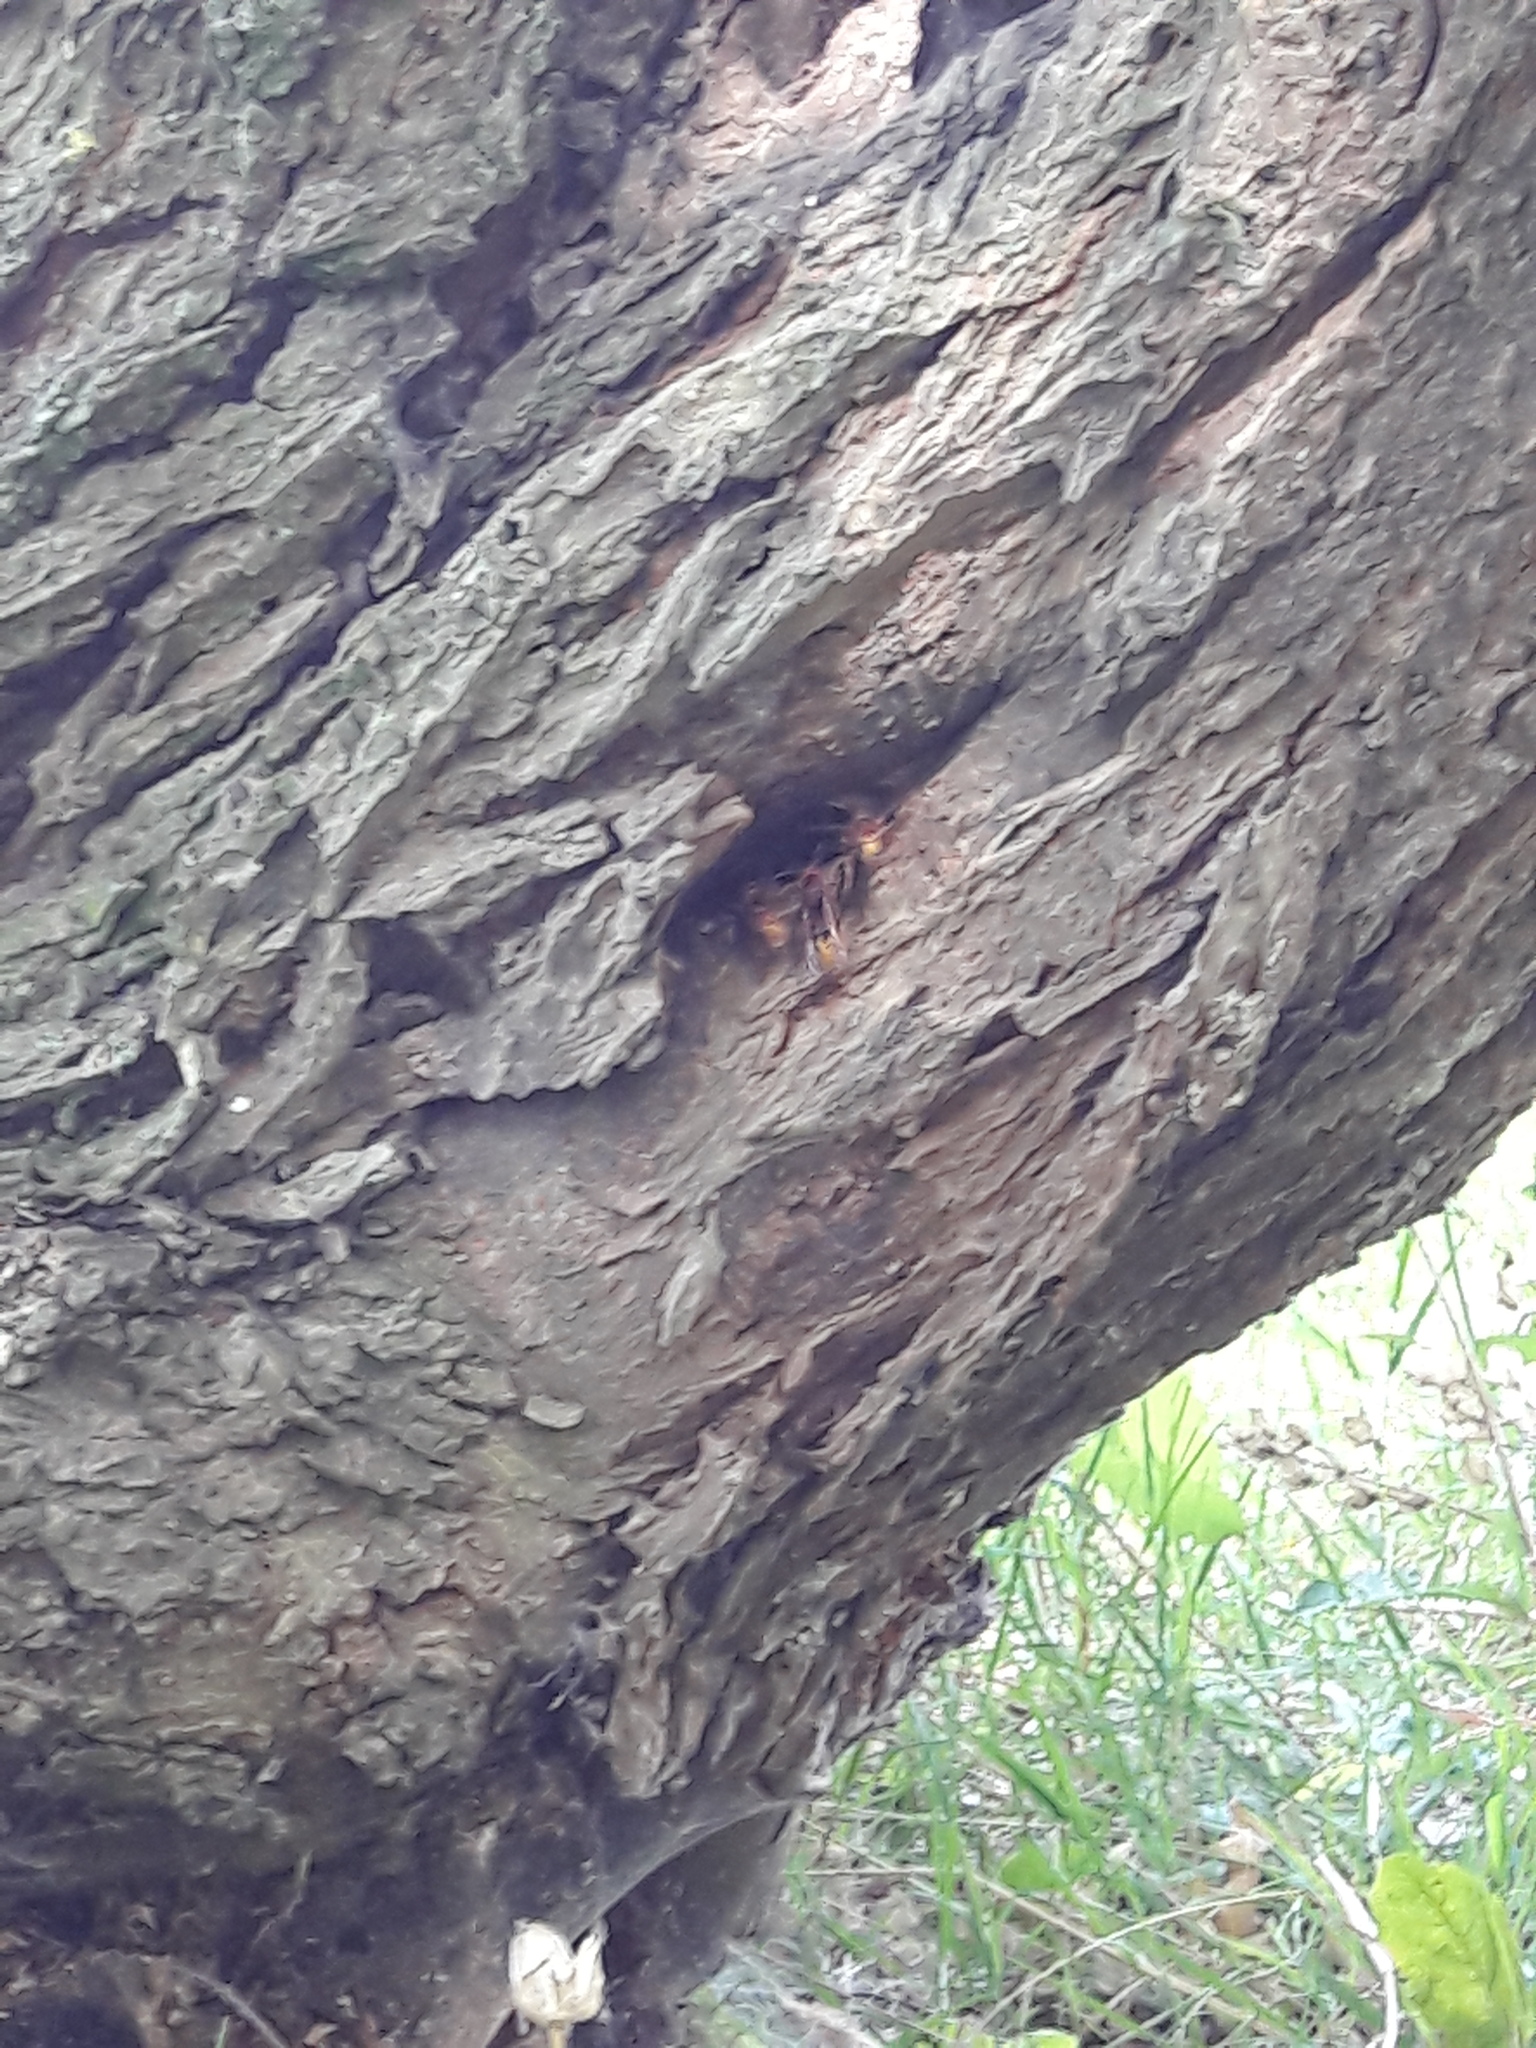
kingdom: Animalia
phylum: Arthropoda
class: Insecta
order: Hymenoptera
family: Vespidae
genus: Vespa
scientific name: Vespa crabro
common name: Hornet
